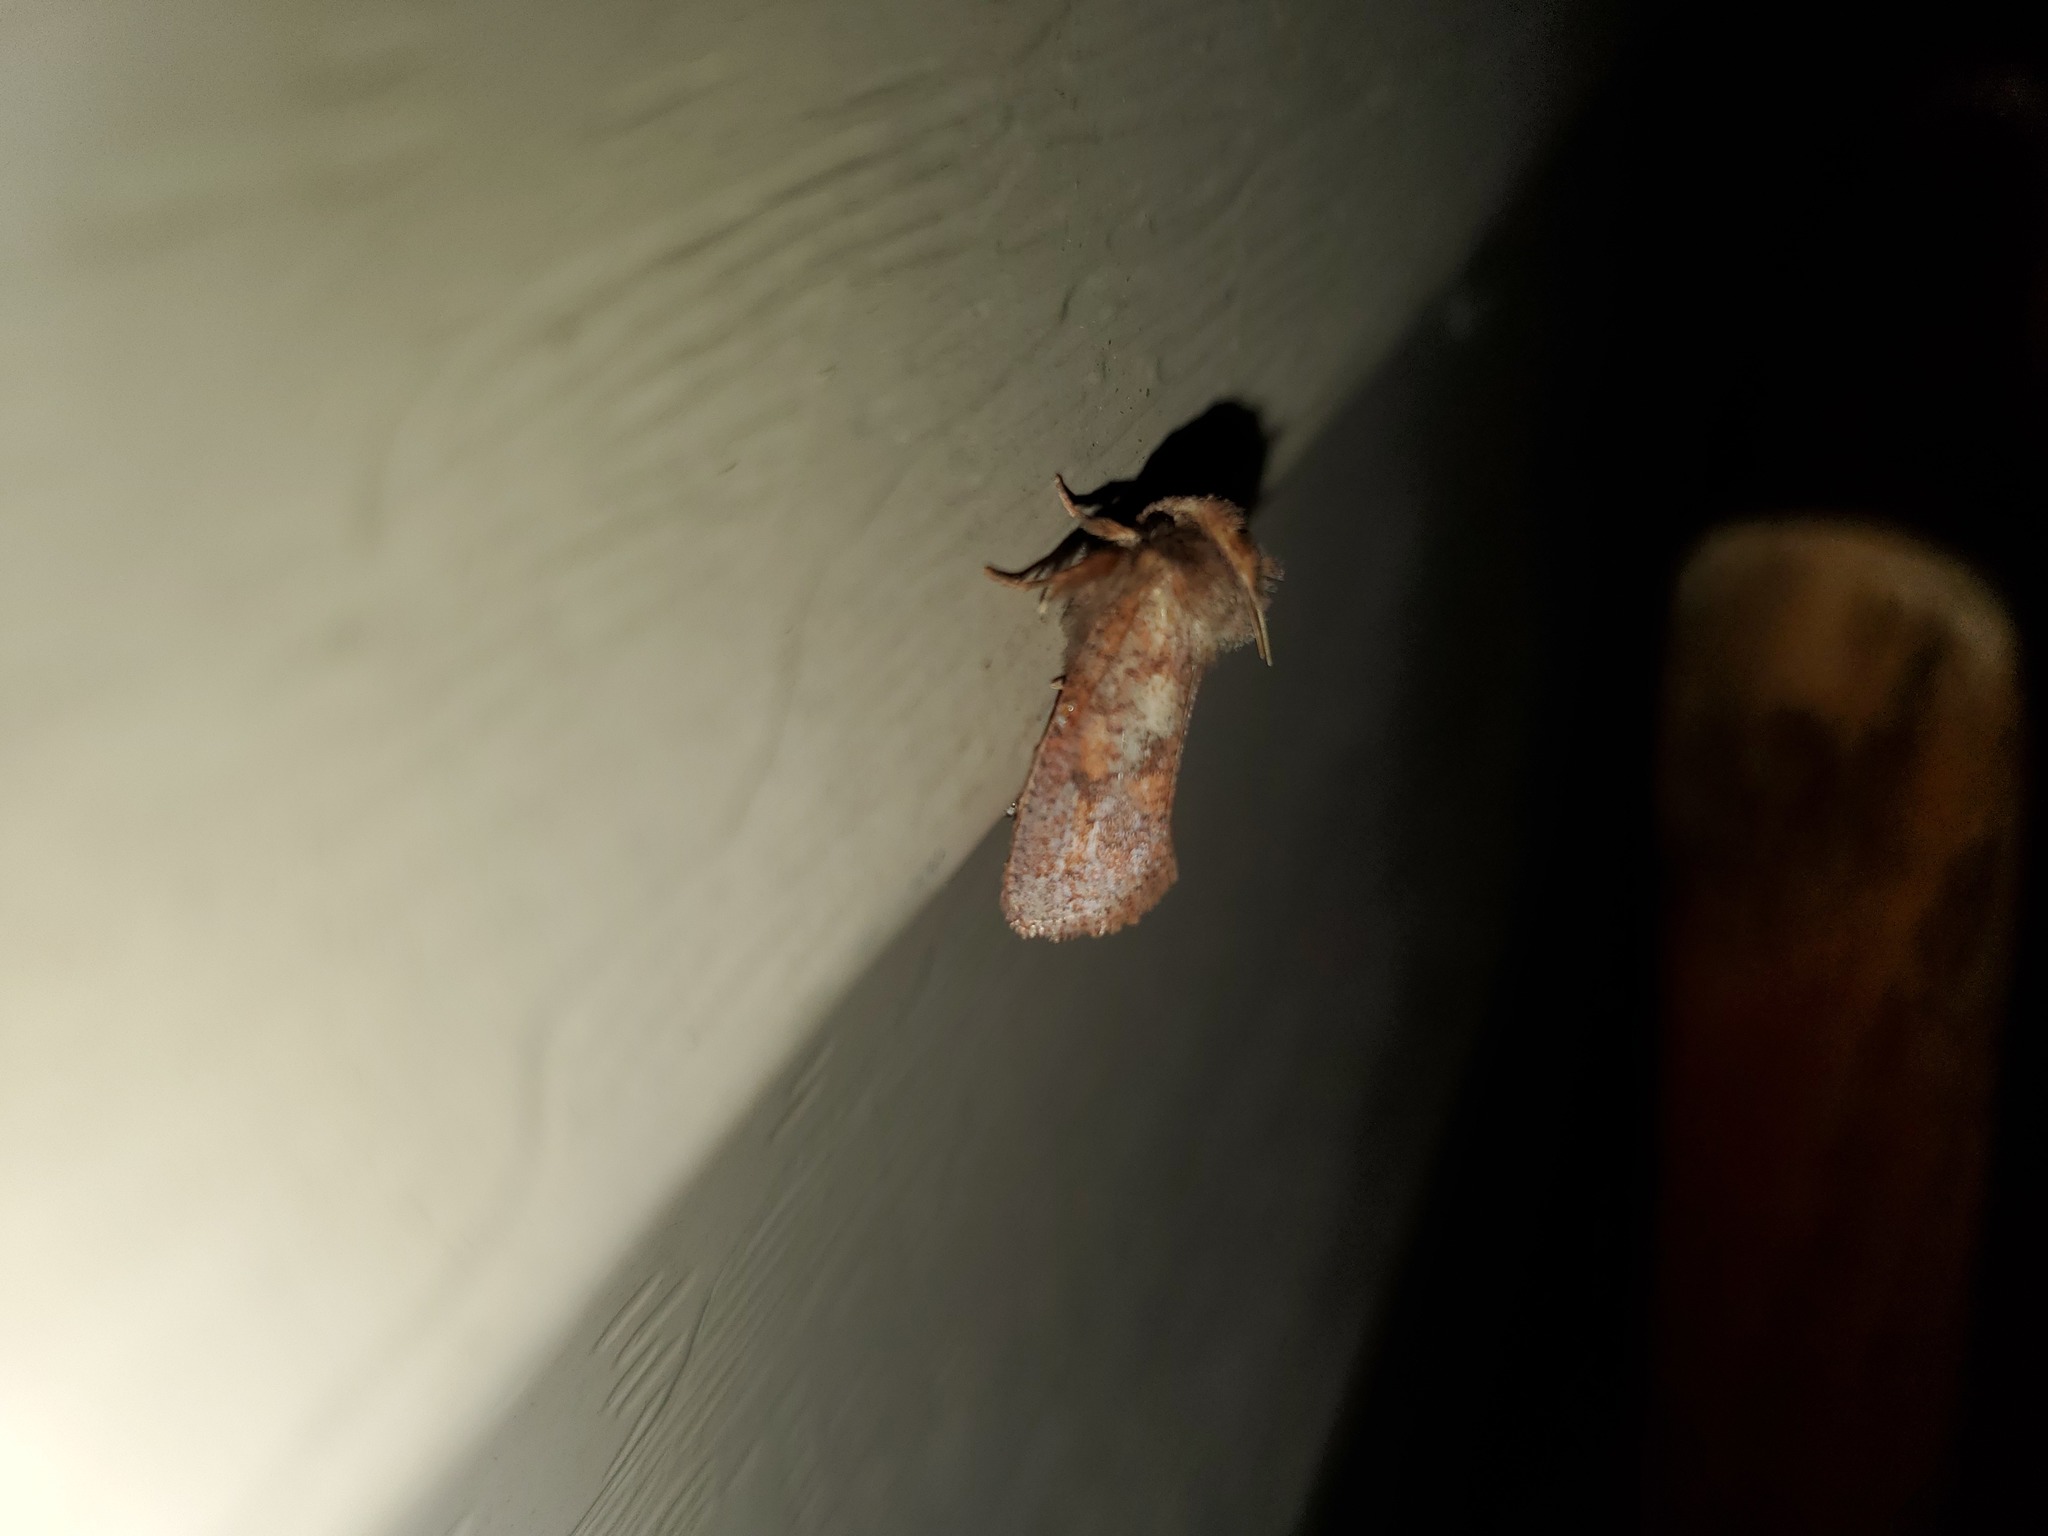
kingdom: Animalia
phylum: Arthropoda
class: Insecta
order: Lepidoptera
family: Tineidae
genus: Acrolophus
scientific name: Acrolophus plumifrontella
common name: Eastern grass tubeworm moth
